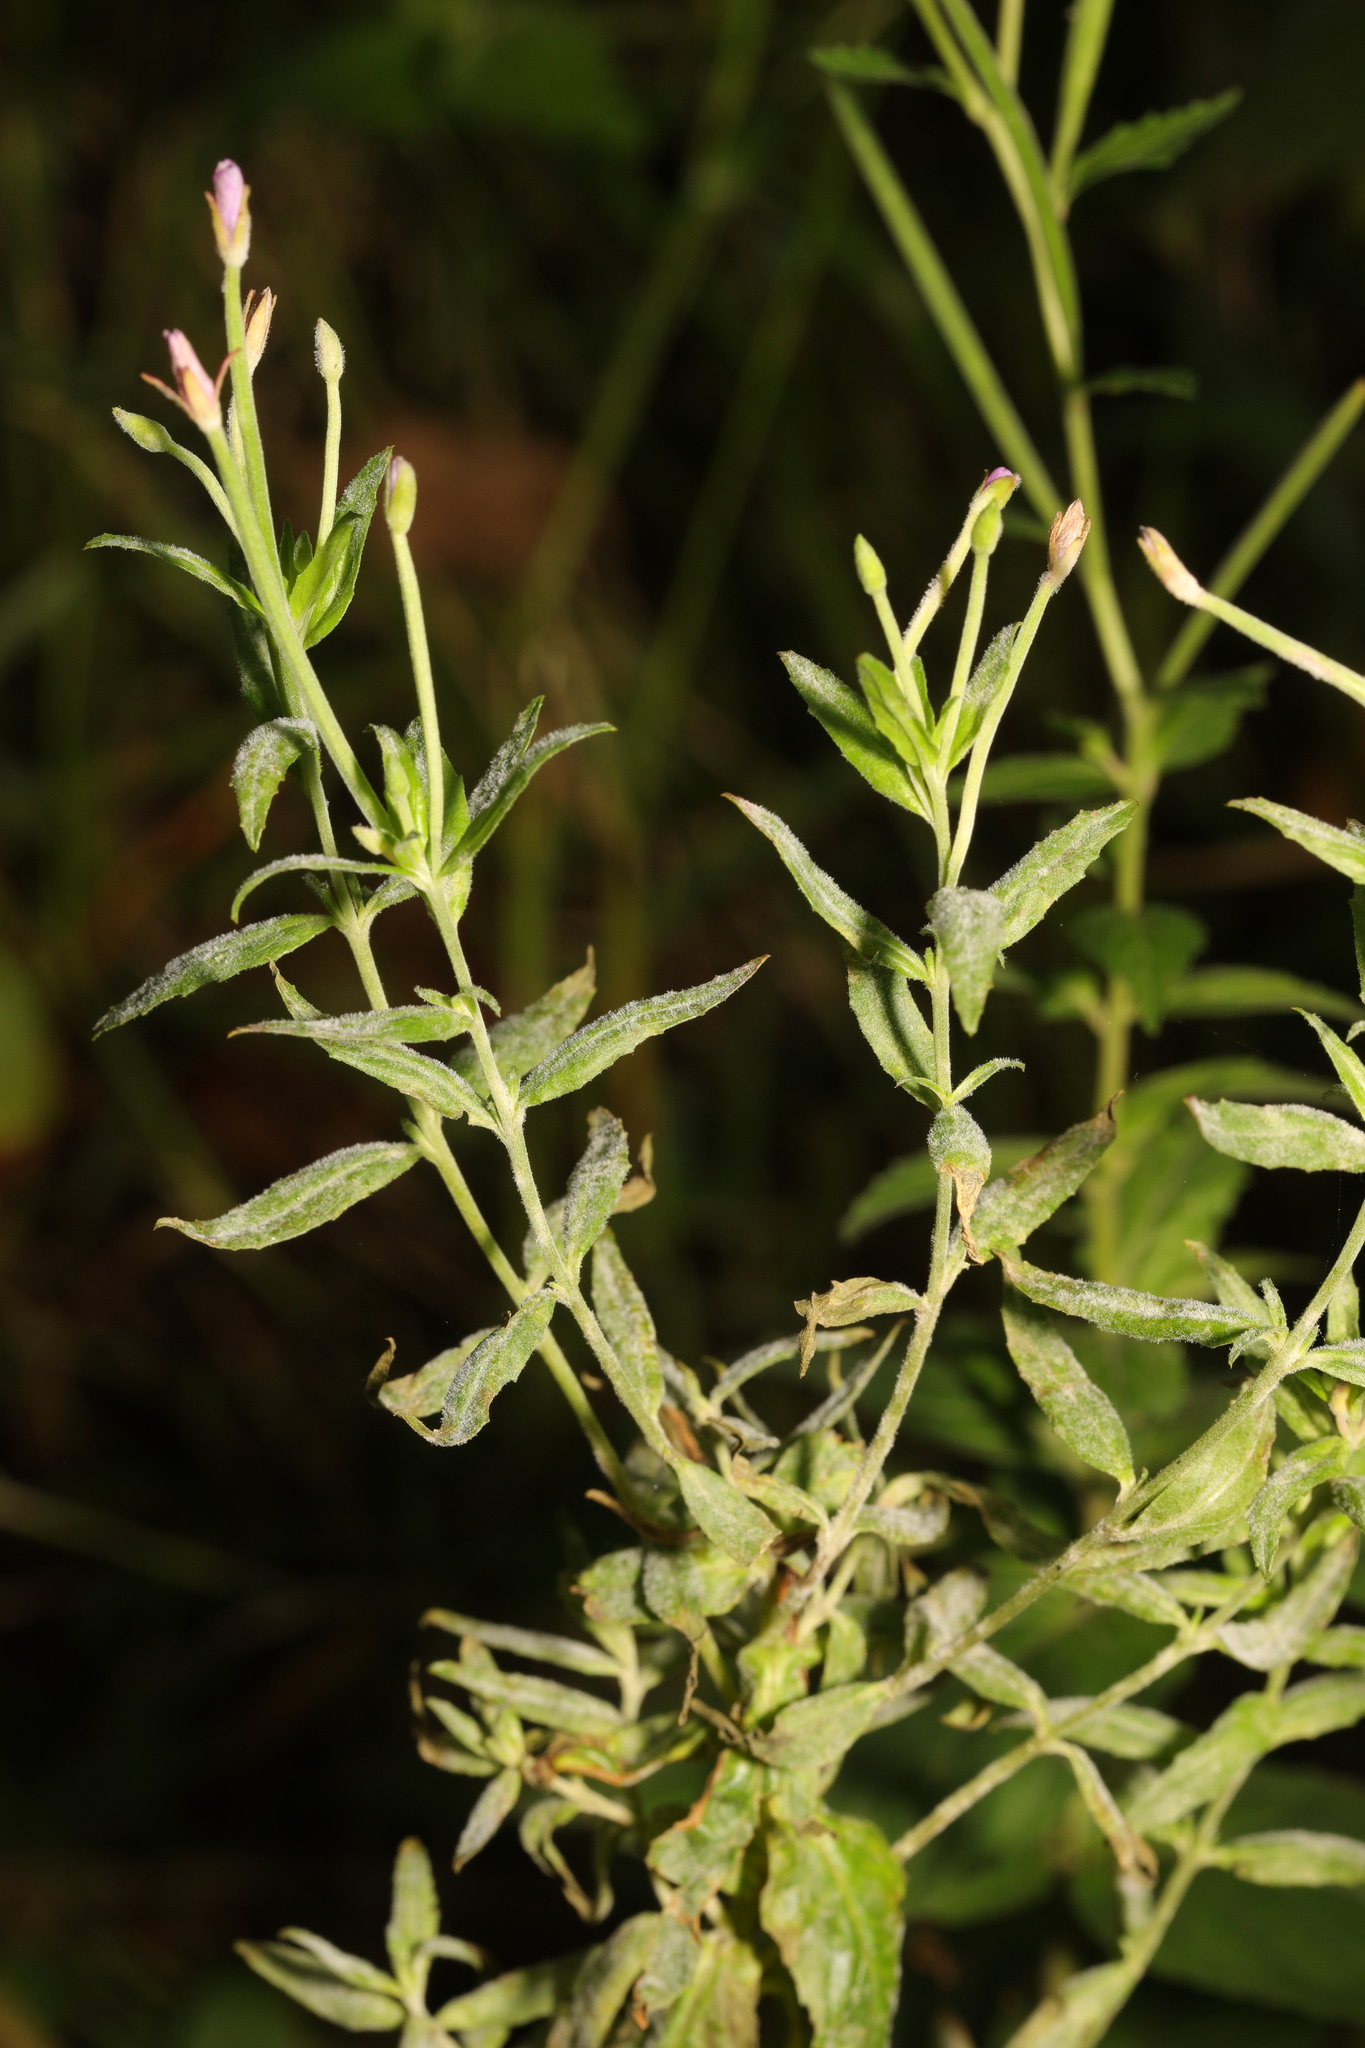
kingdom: Fungi
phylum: Ascomycota
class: Leotiomycetes
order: Helotiales
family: Erysiphaceae
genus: Podosphaera
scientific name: Podosphaera epilobii
